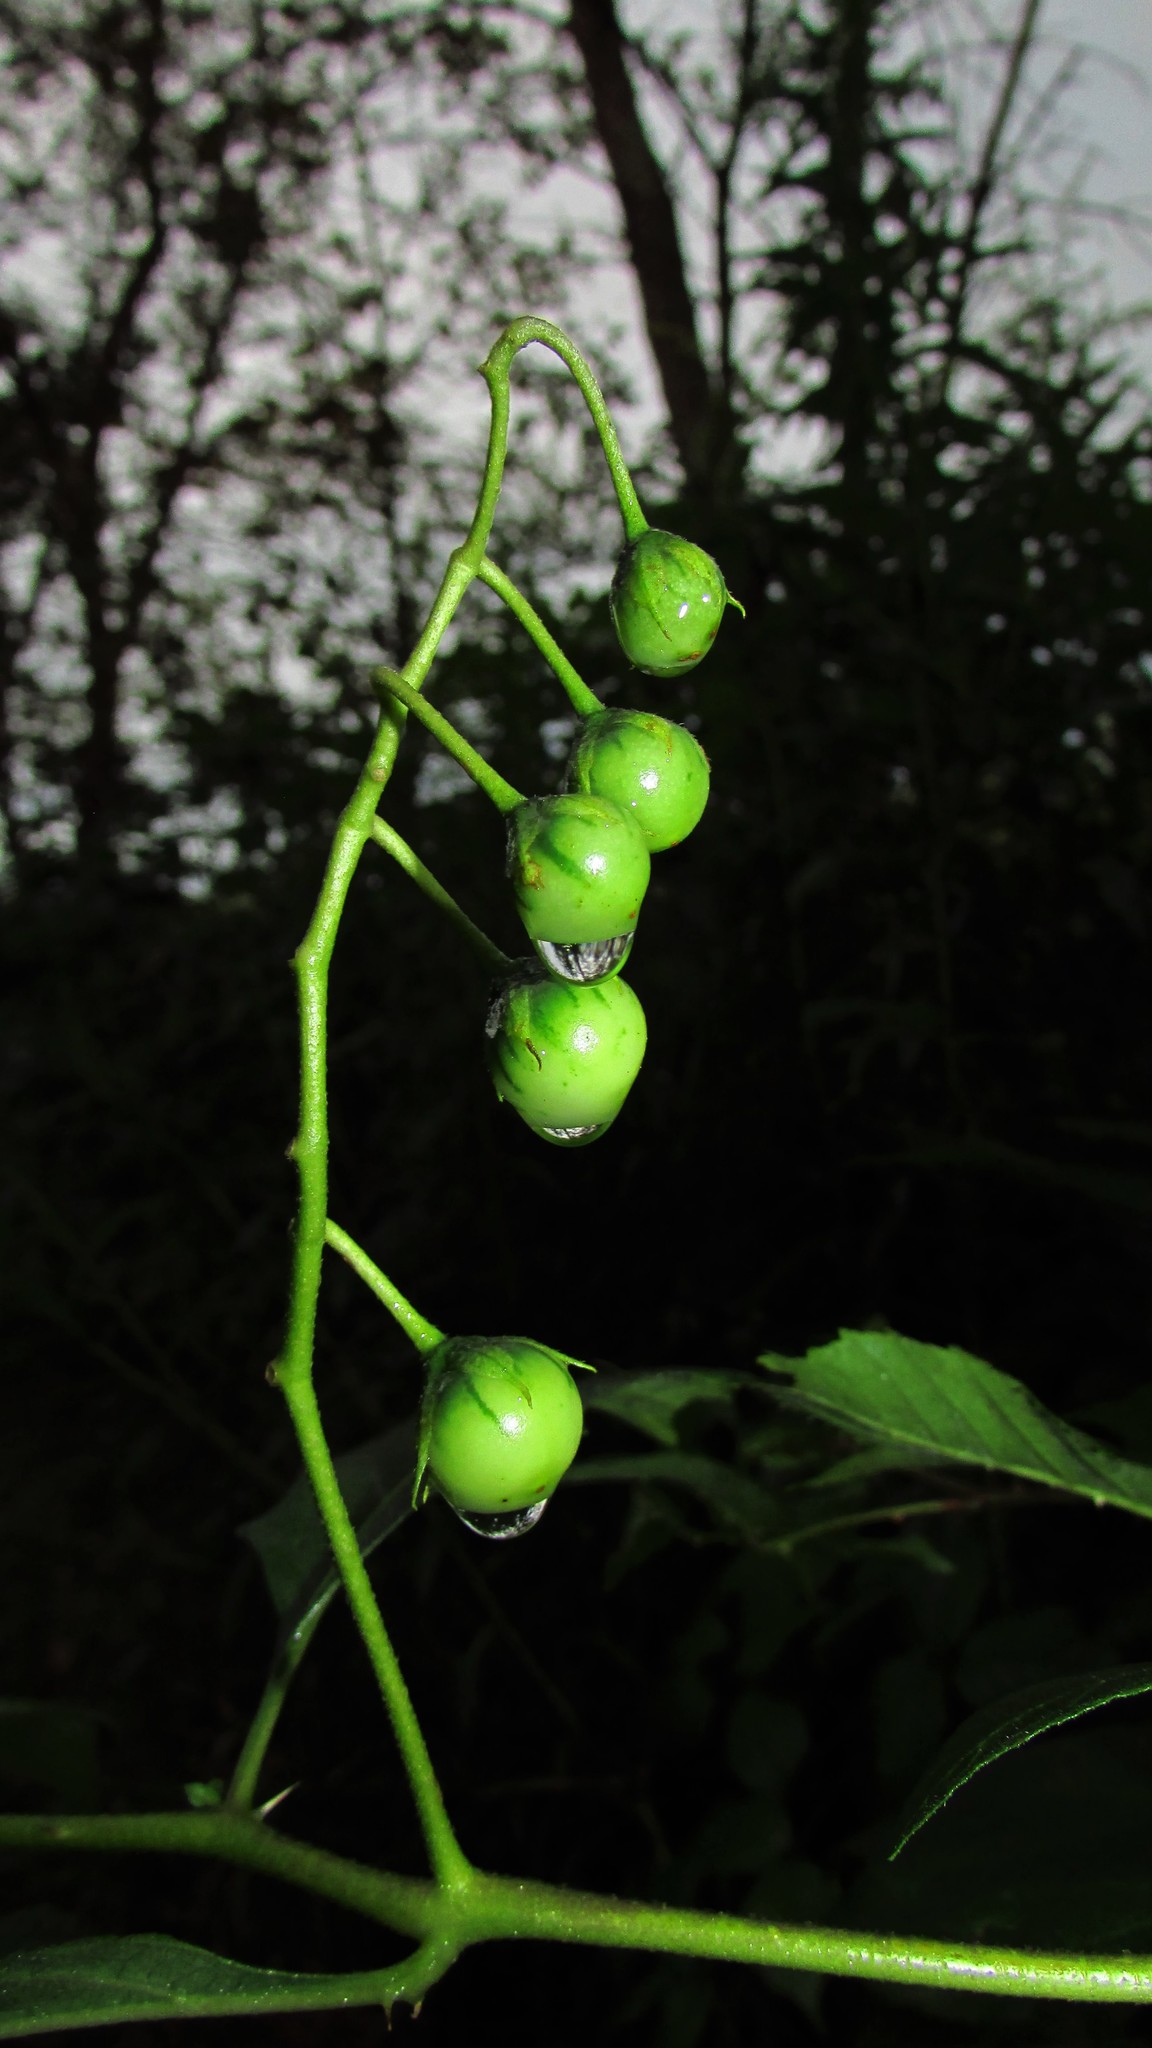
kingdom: Plantae
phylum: Tracheophyta
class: Magnoliopsida
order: Solanales
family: Solanaceae
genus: Solanum
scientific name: Solanum carolinense
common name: Horse-nettle
